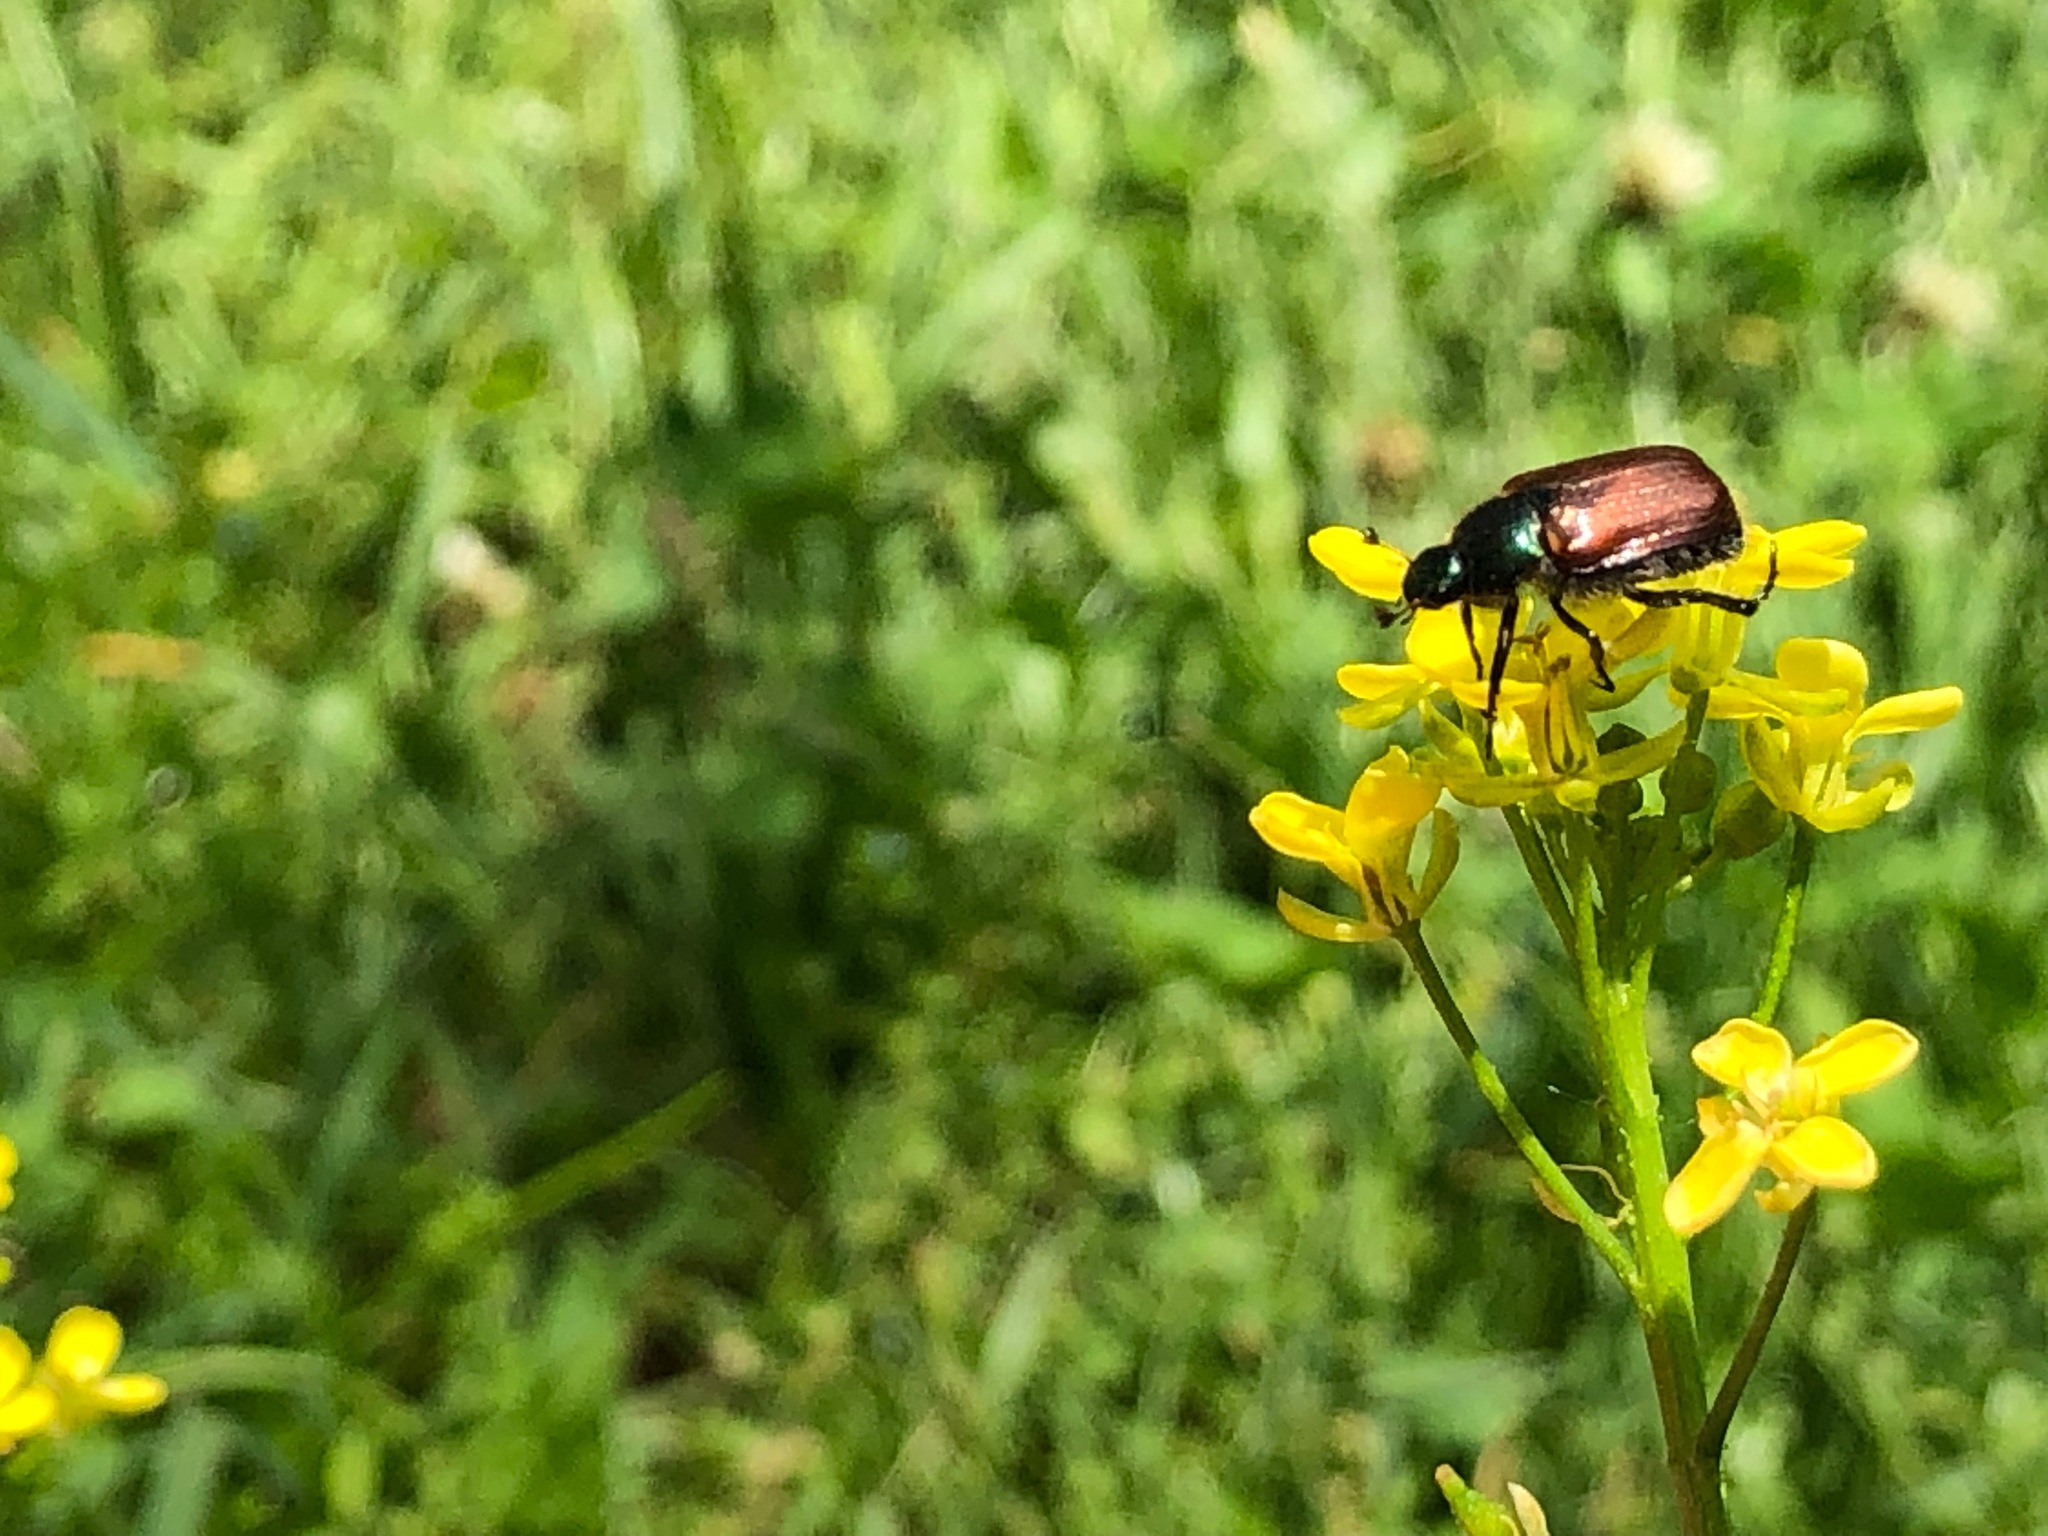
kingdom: Animalia
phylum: Arthropoda
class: Insecta
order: Coleoptera
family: Scarabaeidae
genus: Phyllopertha
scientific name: Phyllopertha horticola
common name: Garden chafer
